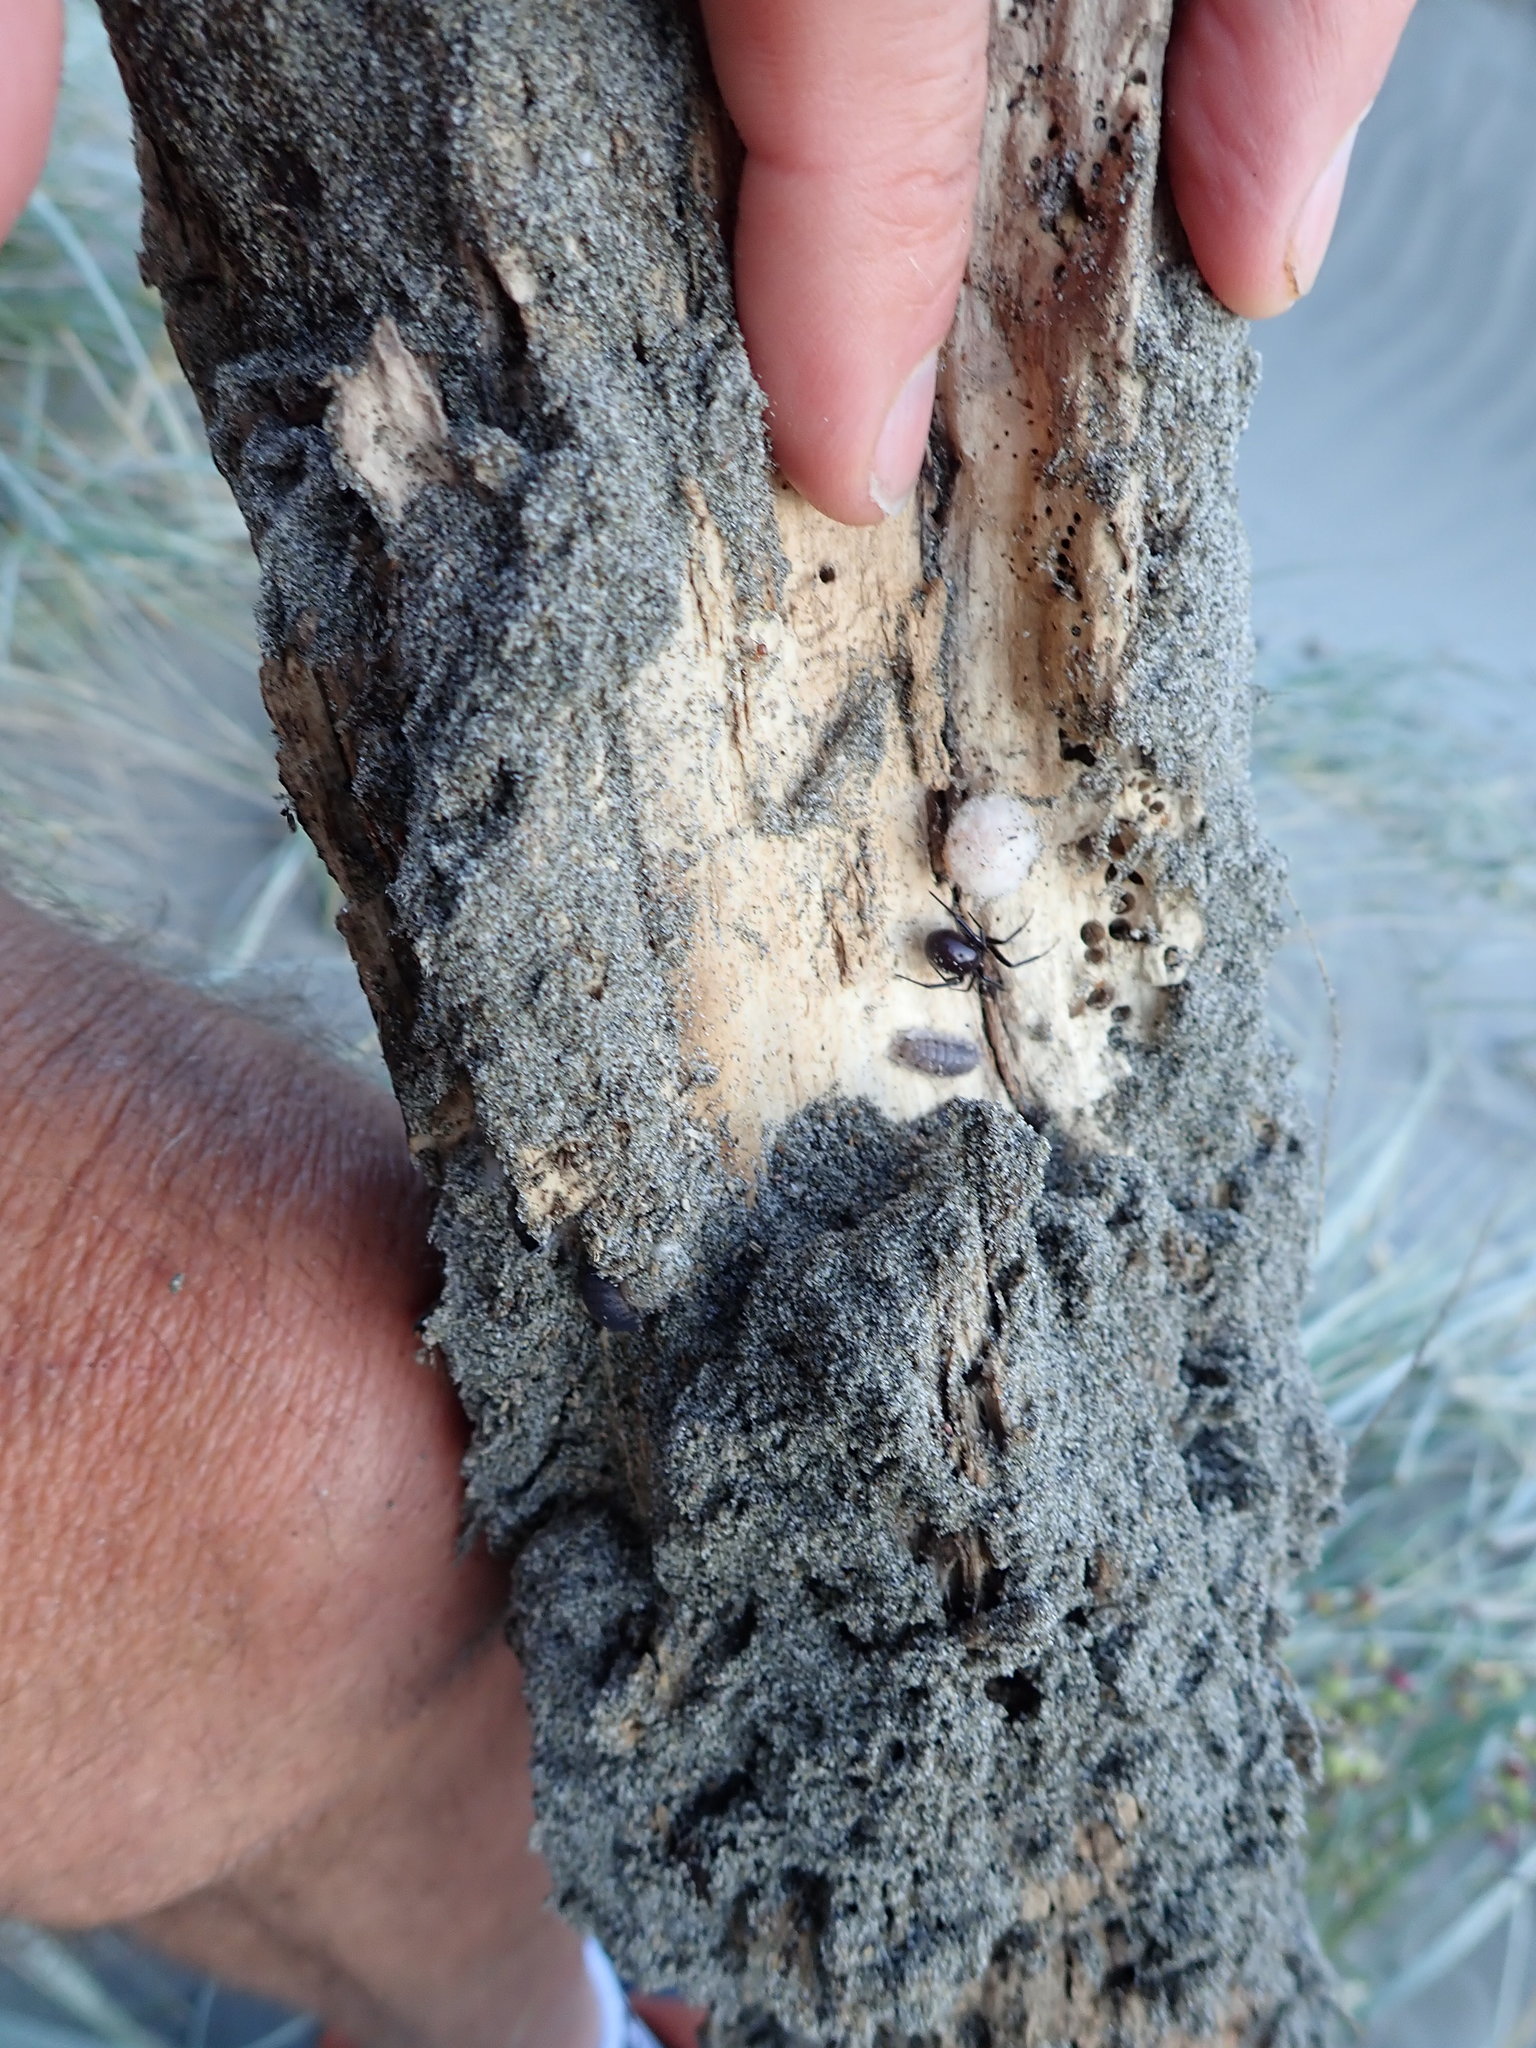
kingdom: Animalia
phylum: Arthropoda
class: Arachnida
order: Araneae
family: Theridiidae
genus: Steatoda
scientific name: Steatoda capensis
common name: Cobweb weaver
